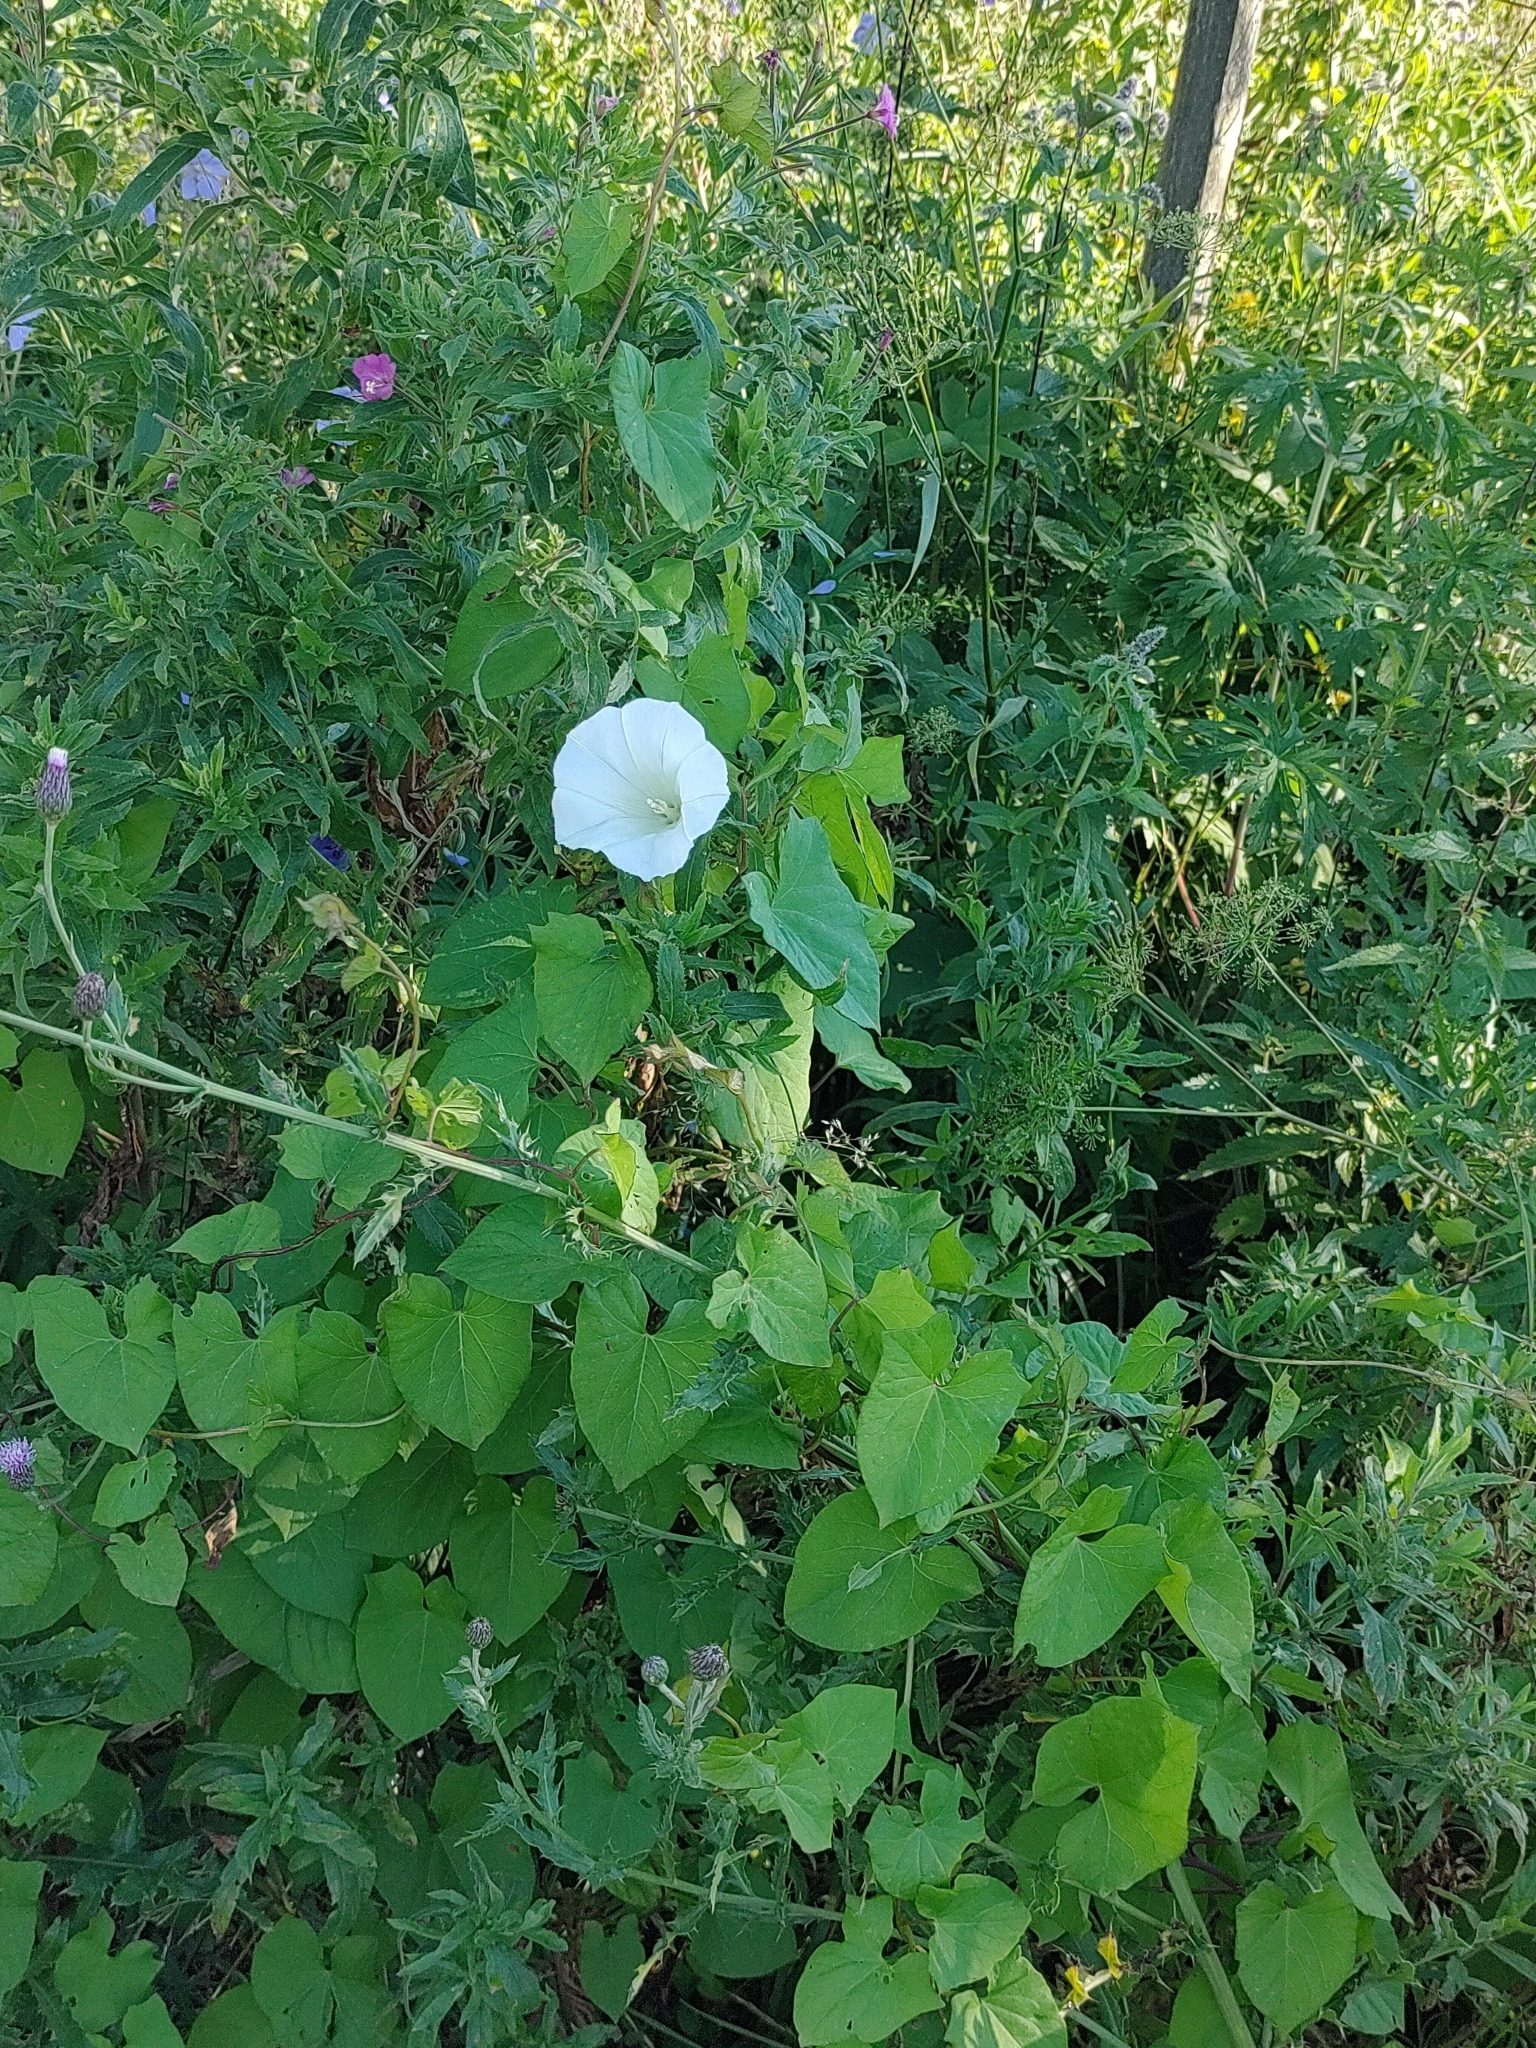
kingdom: Plantae
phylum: Tracheophyta
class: Magnoliopsida
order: Solanales
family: Convolvulaceae
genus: Calystegia
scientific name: Calystegia sepium
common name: Hedge bindweed
